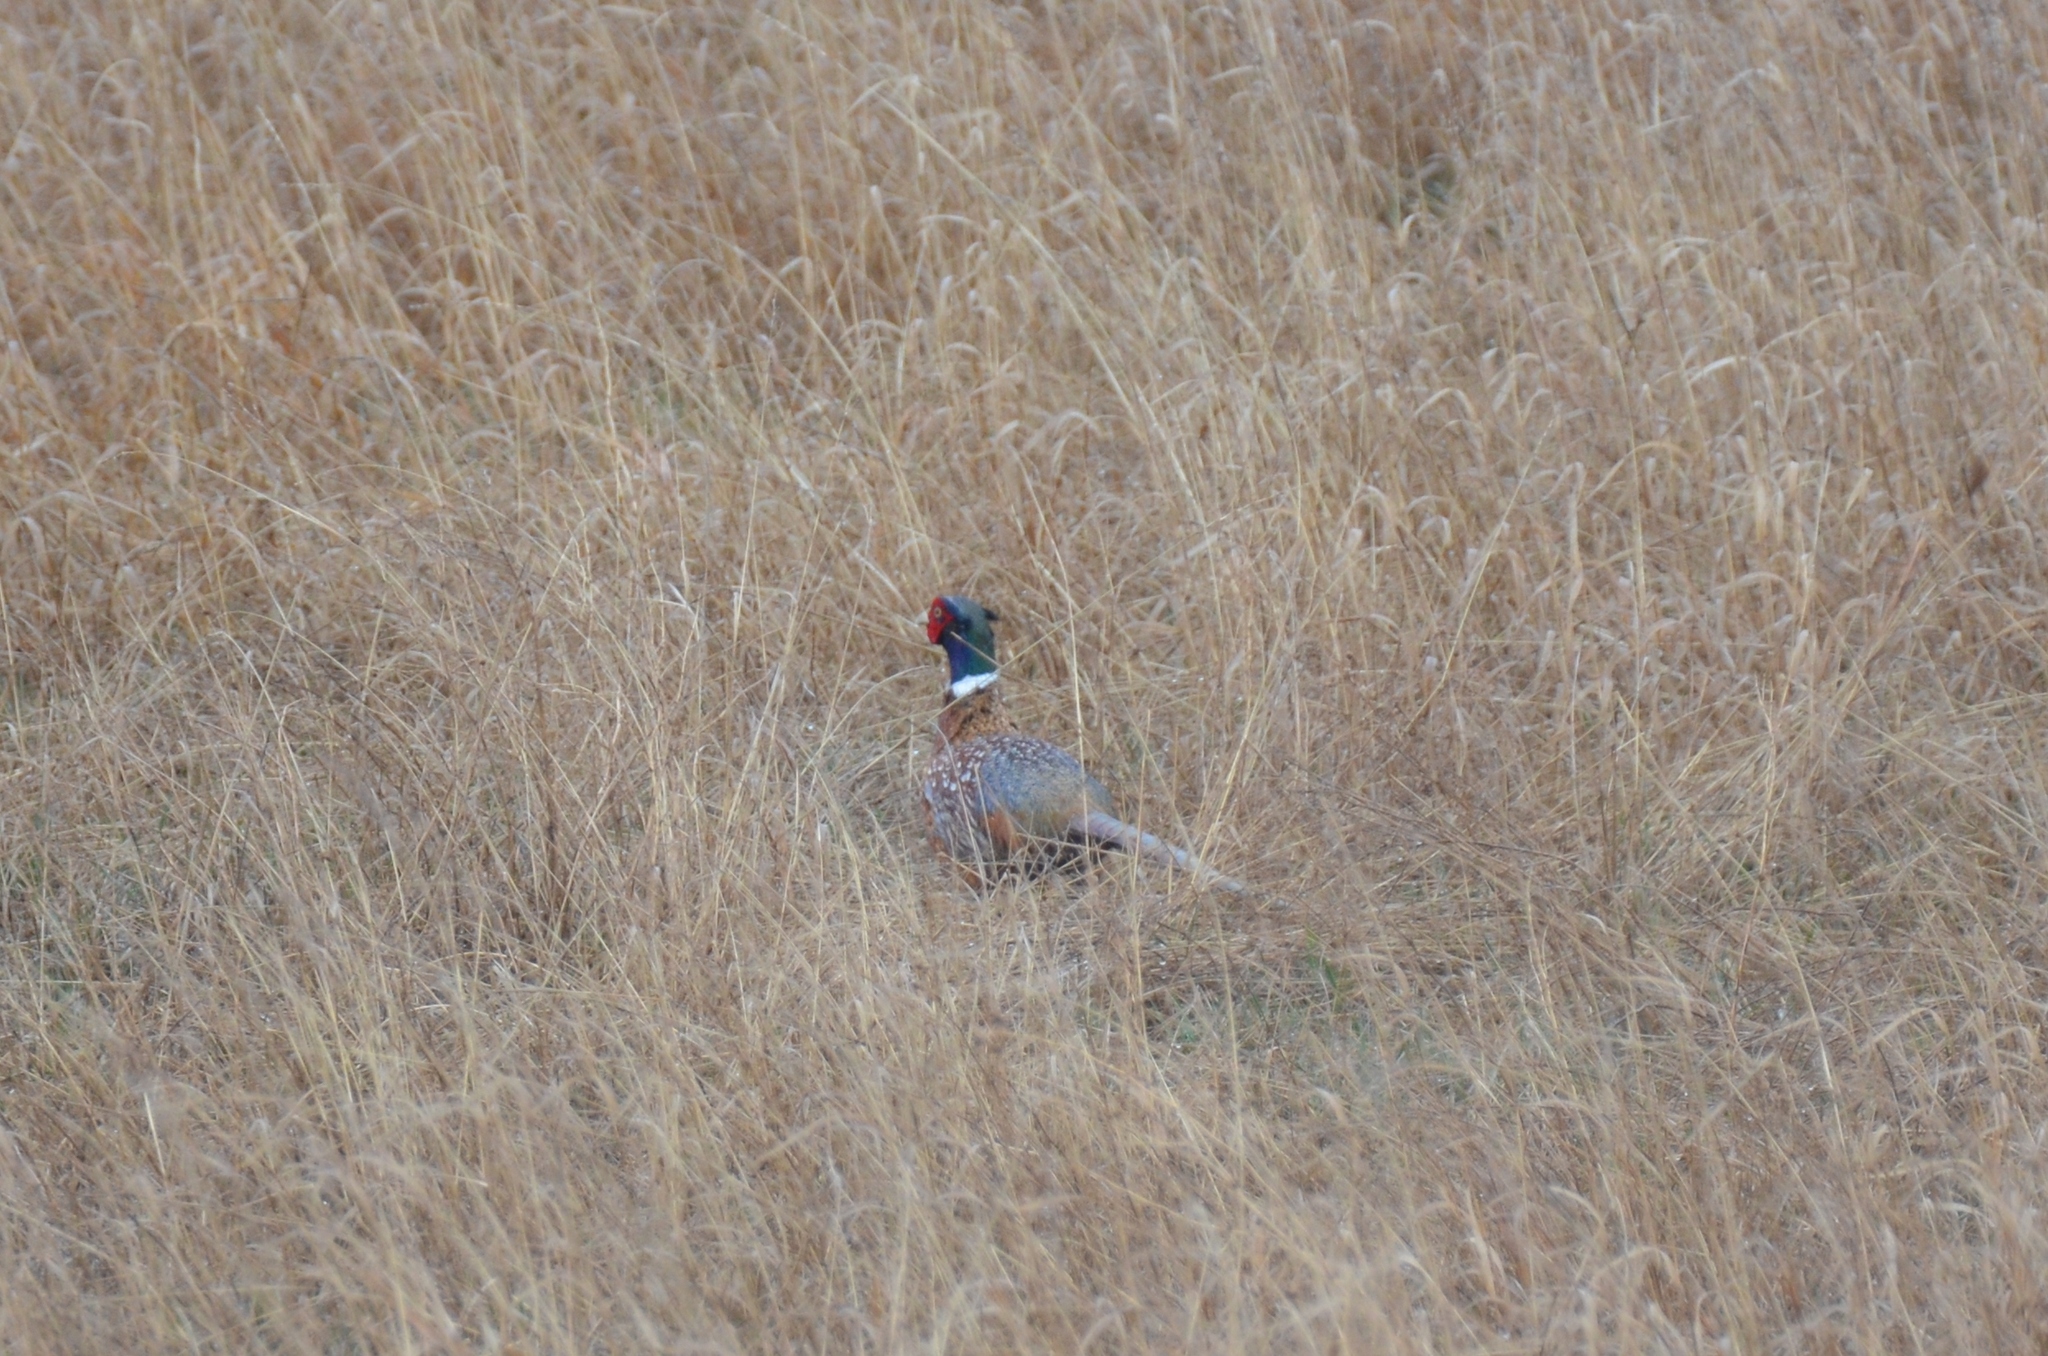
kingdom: Animalia
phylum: Chordata
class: Aves
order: Galliformes
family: Phasianidae
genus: Phasianus
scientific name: Phasianus colchicus
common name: Common pheasant
